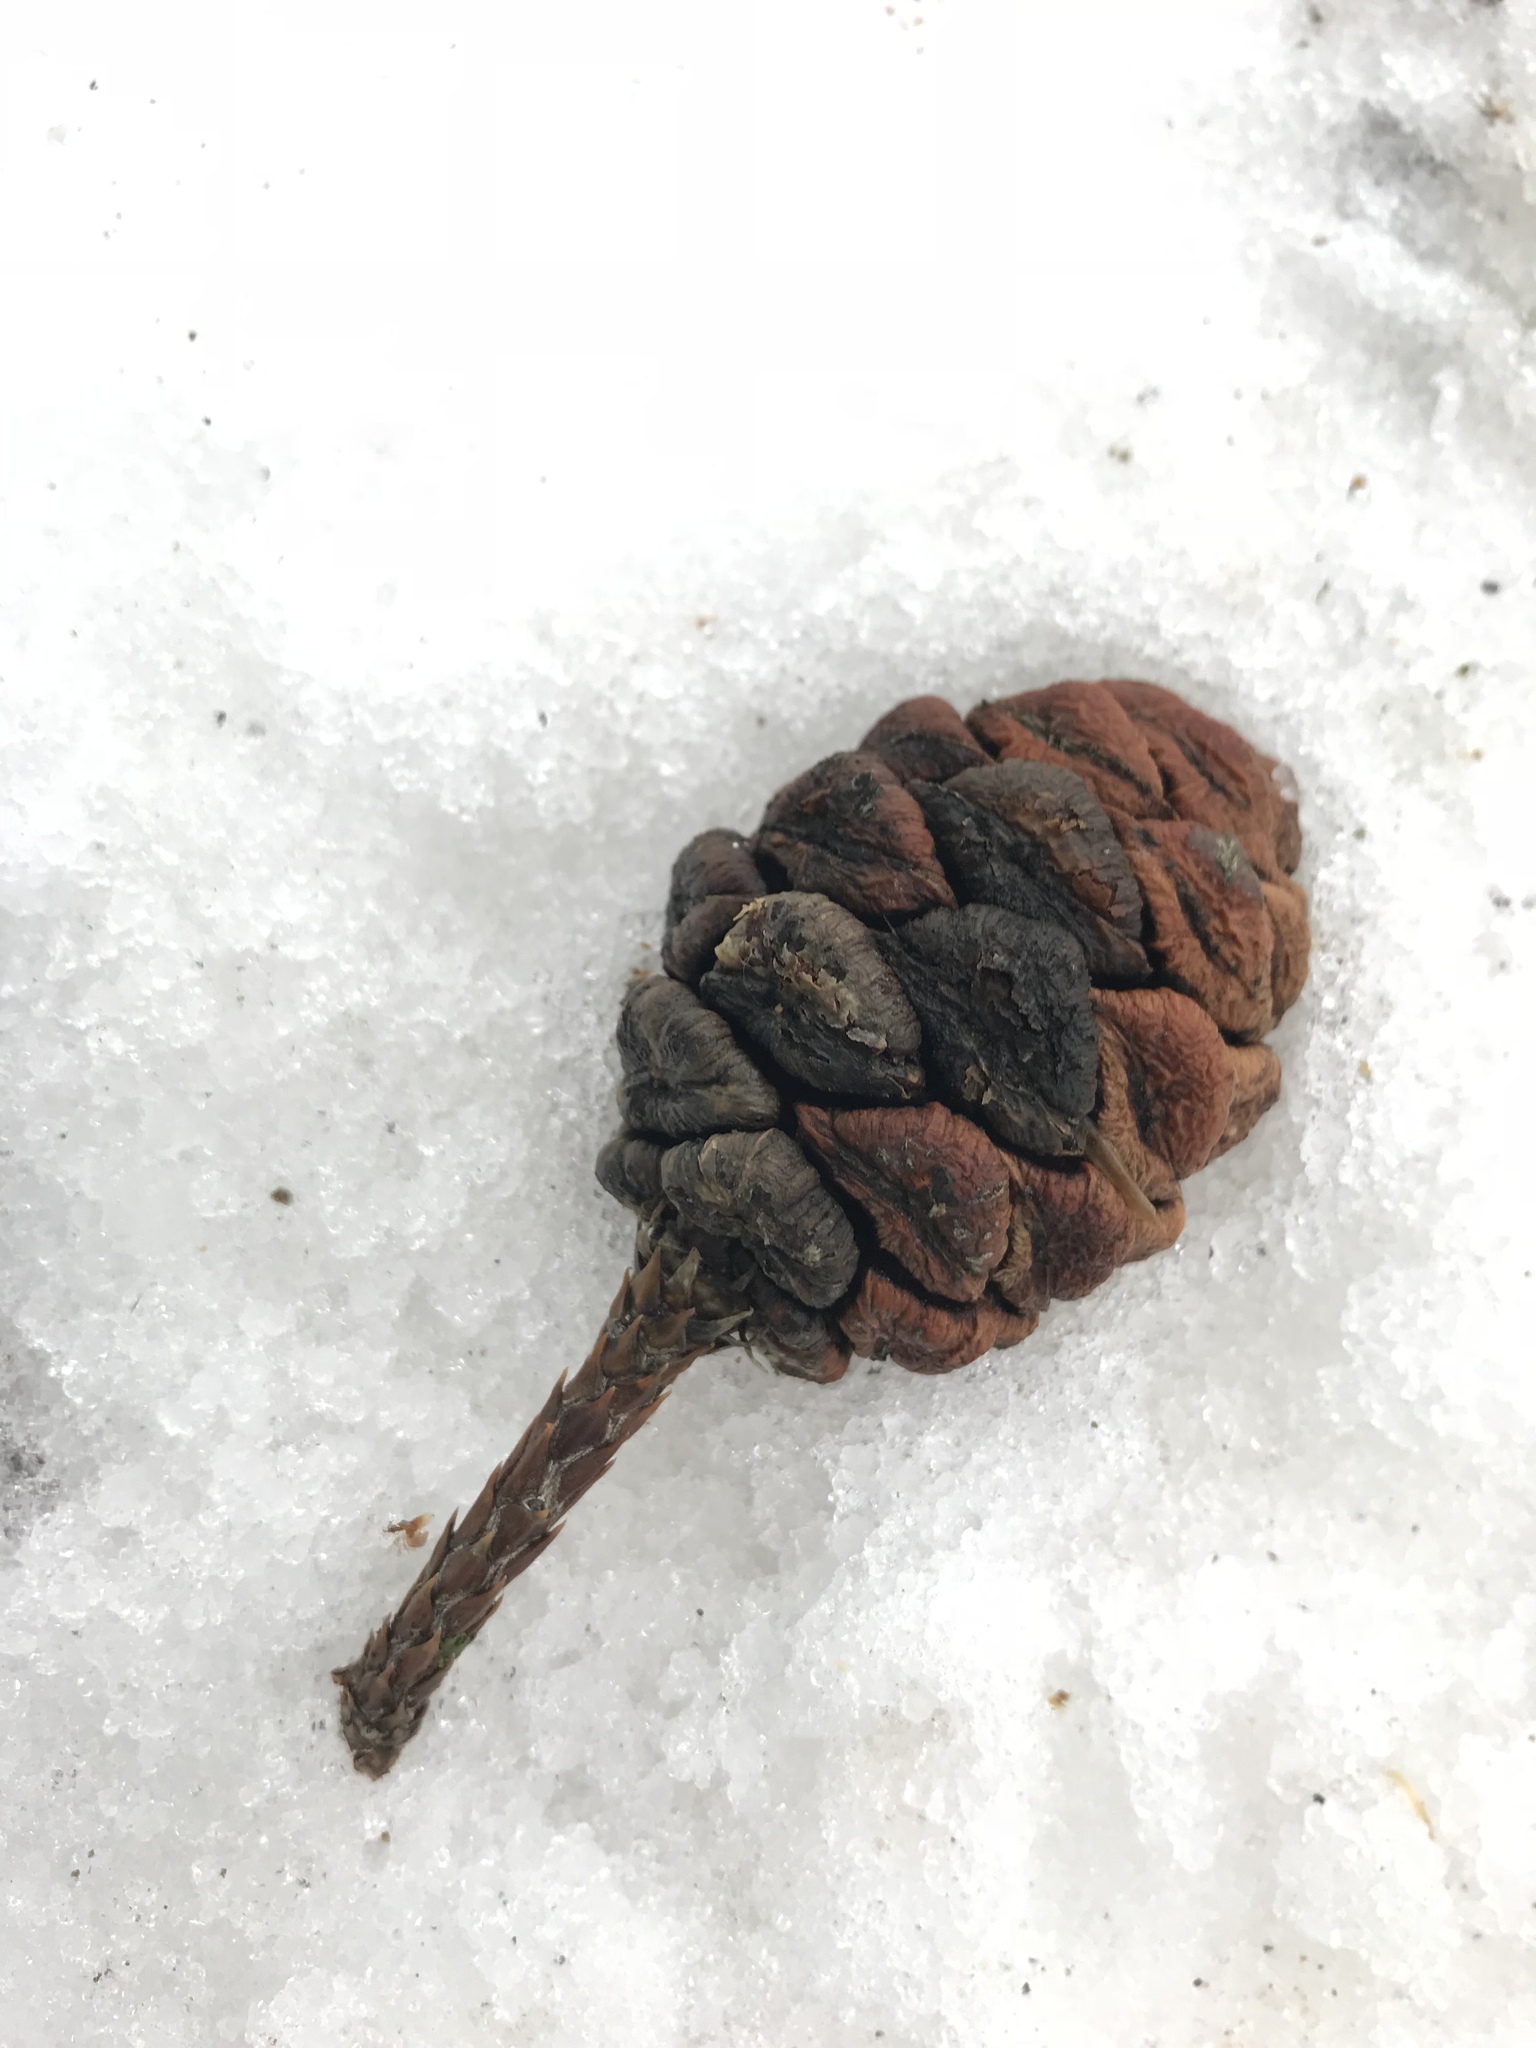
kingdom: Plantae
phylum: Tracheophyta
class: Pinopsida
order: Pinales
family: Cupressaceae
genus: Sequoiadendron
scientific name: Sequoiadendron giganteum
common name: Wellingtonia
